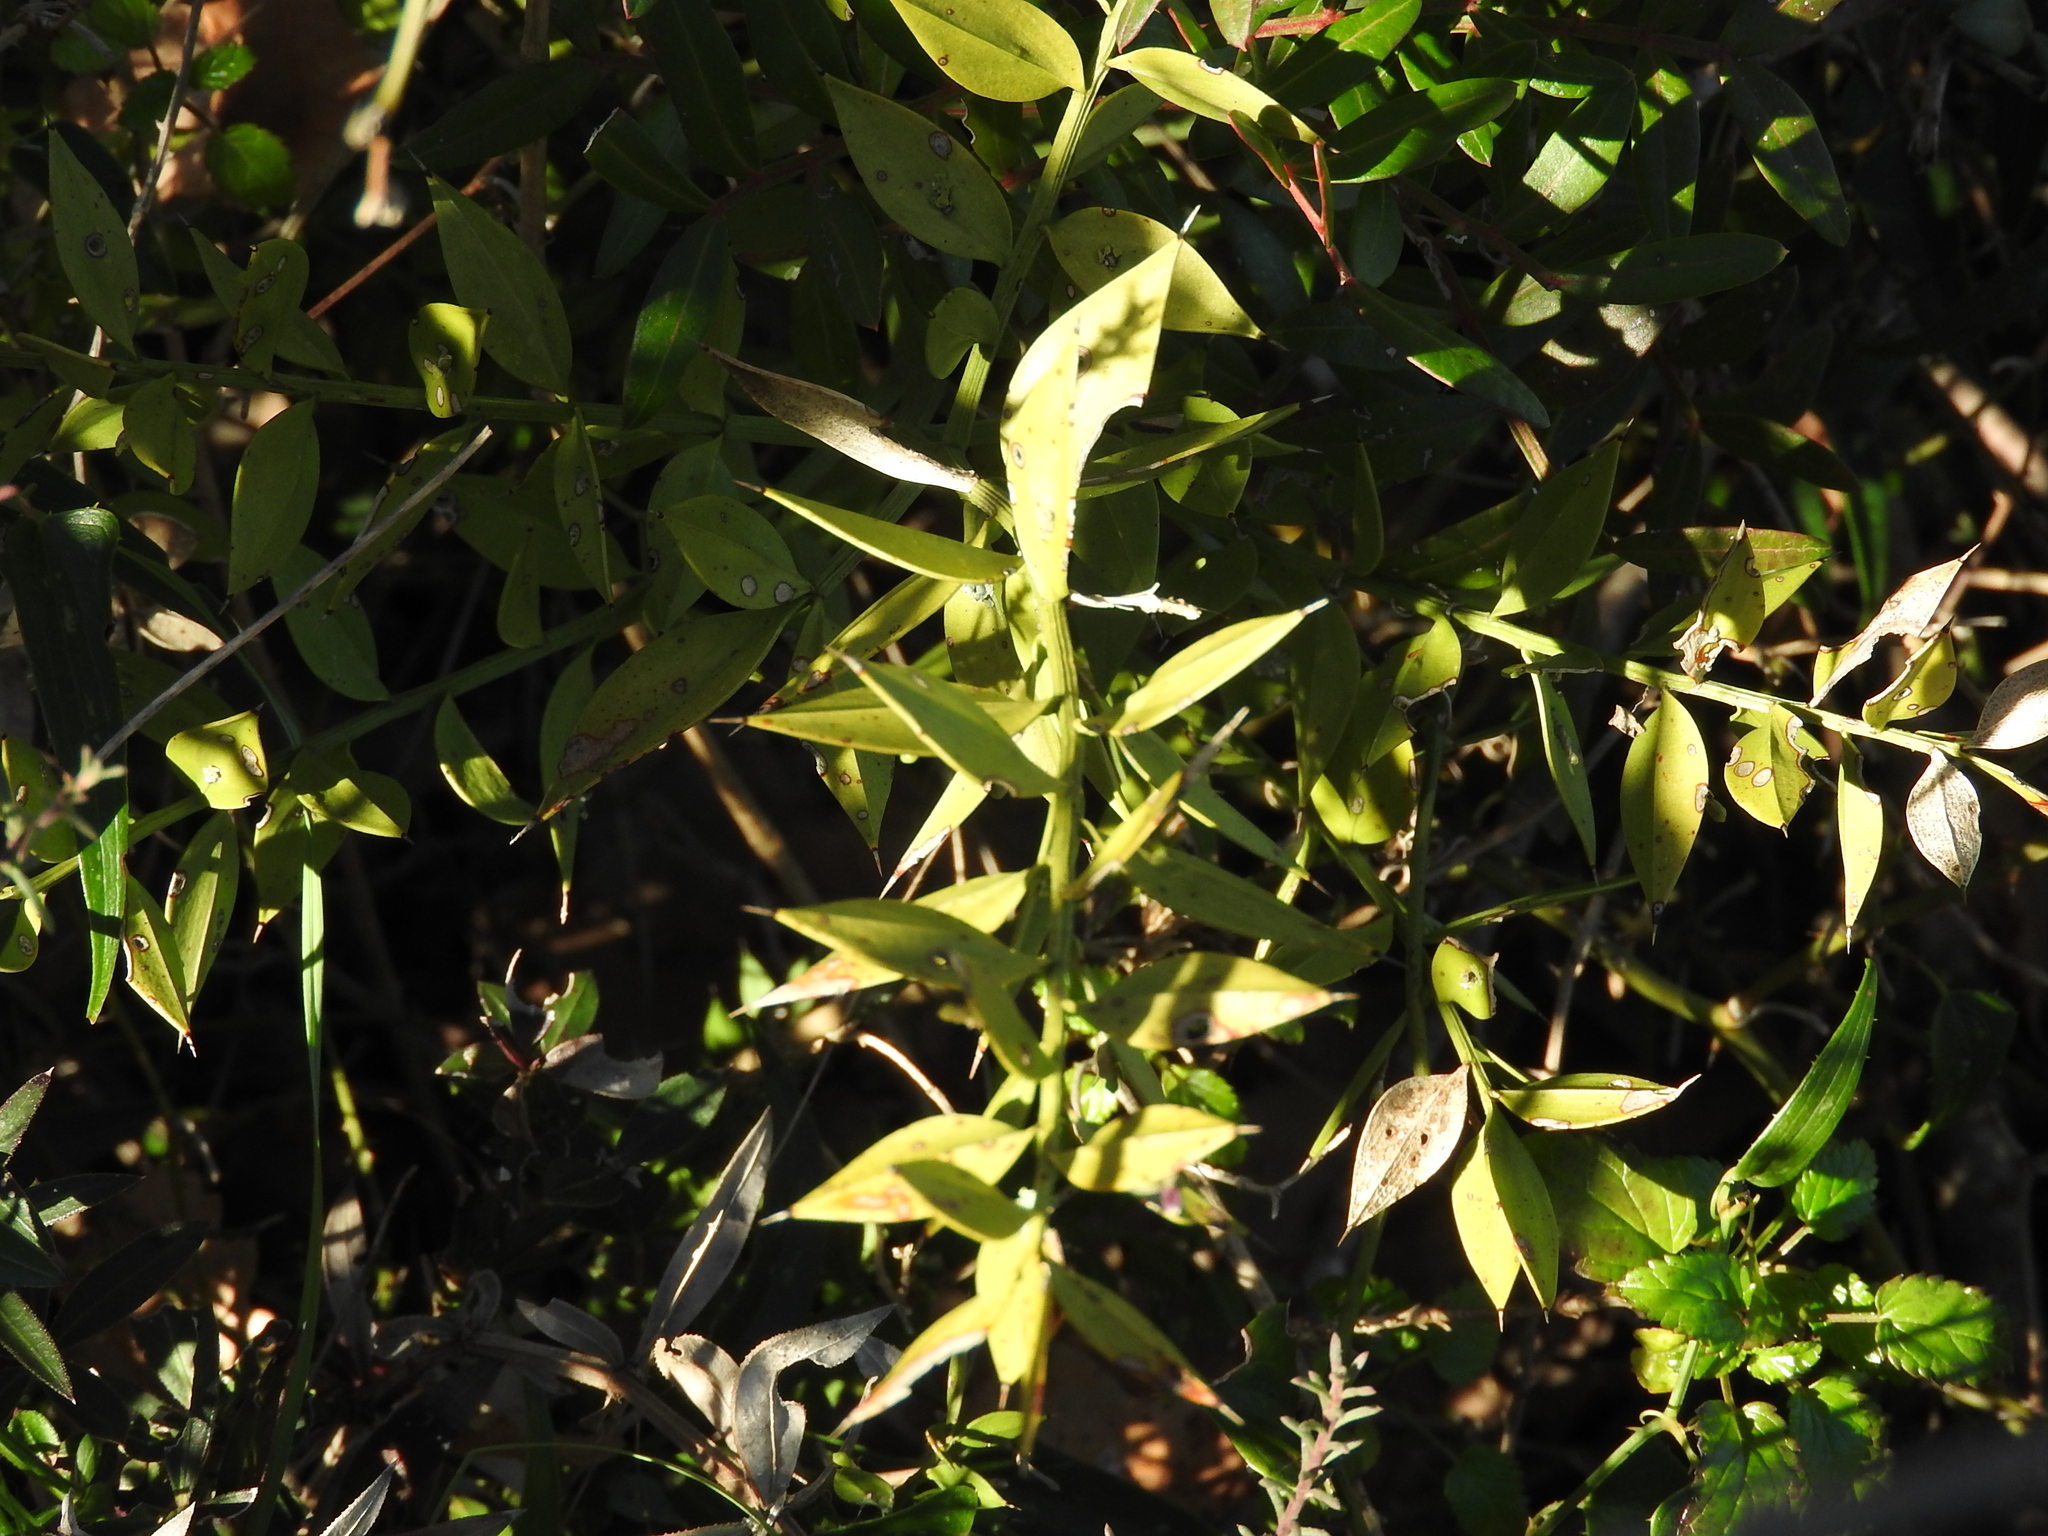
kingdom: Plantae
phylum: Tracheophyta
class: Liliopsida
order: Asparagales
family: Asparagaceae
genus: Ruscus
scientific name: Ruscus aculeatus
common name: Butcher's-broom
